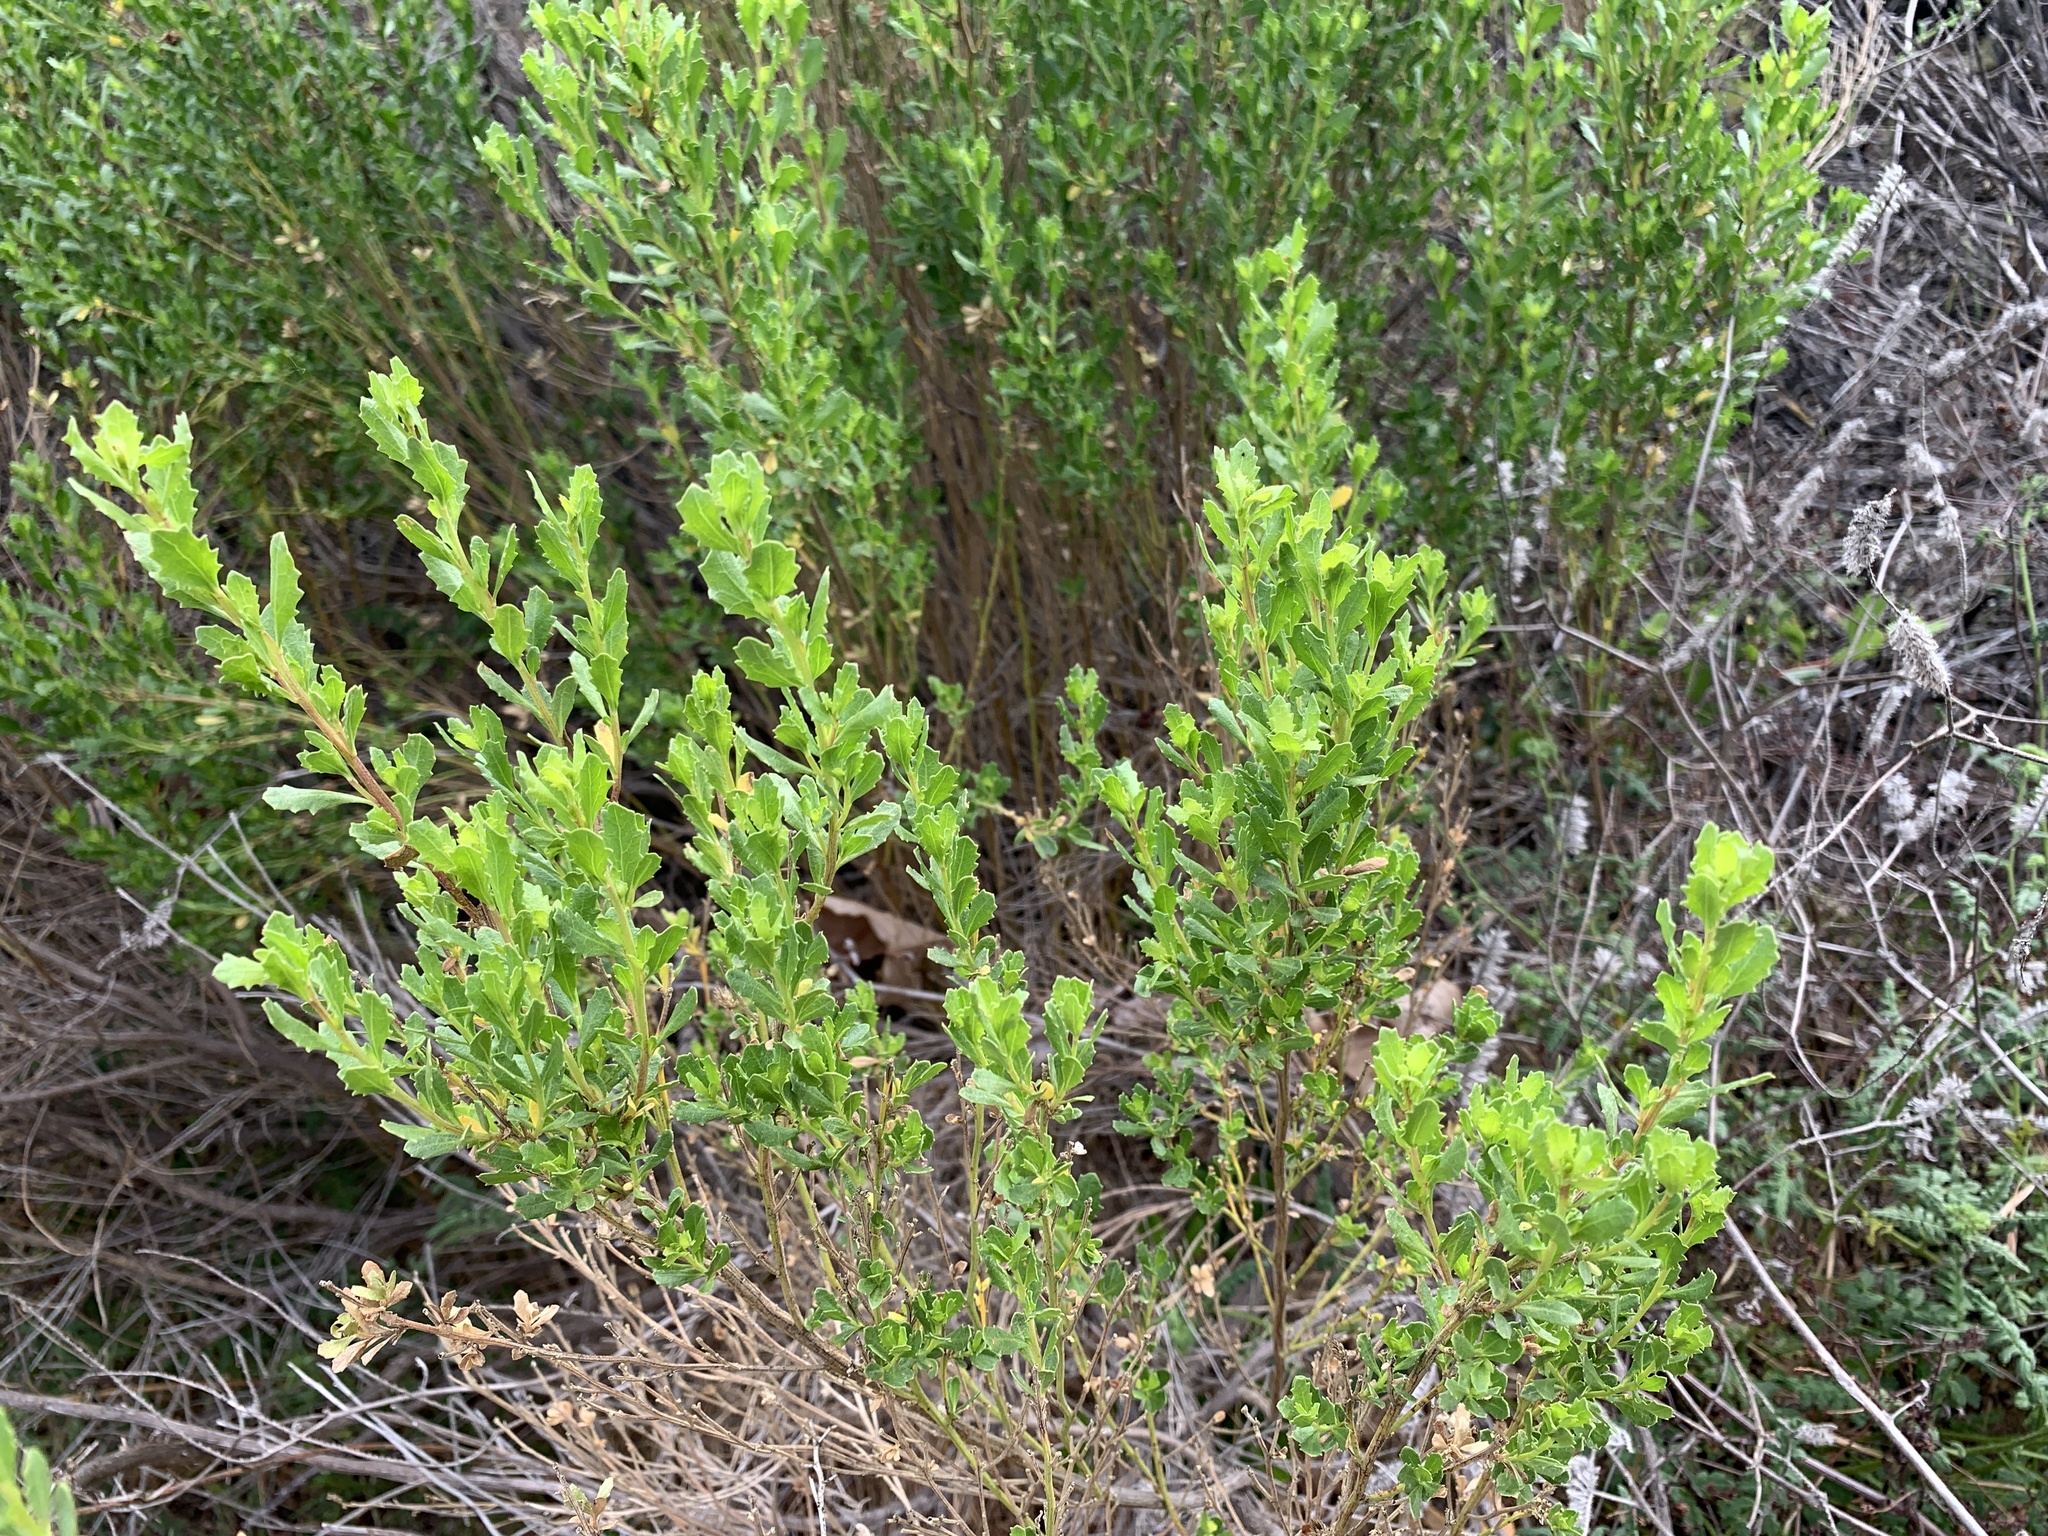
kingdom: Plantae
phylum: Tracheophyta
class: Magnoliopsida
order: Asterales
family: Asteraceae
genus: Baccharis
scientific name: Baccharis pilularis
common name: Coyotebrush
